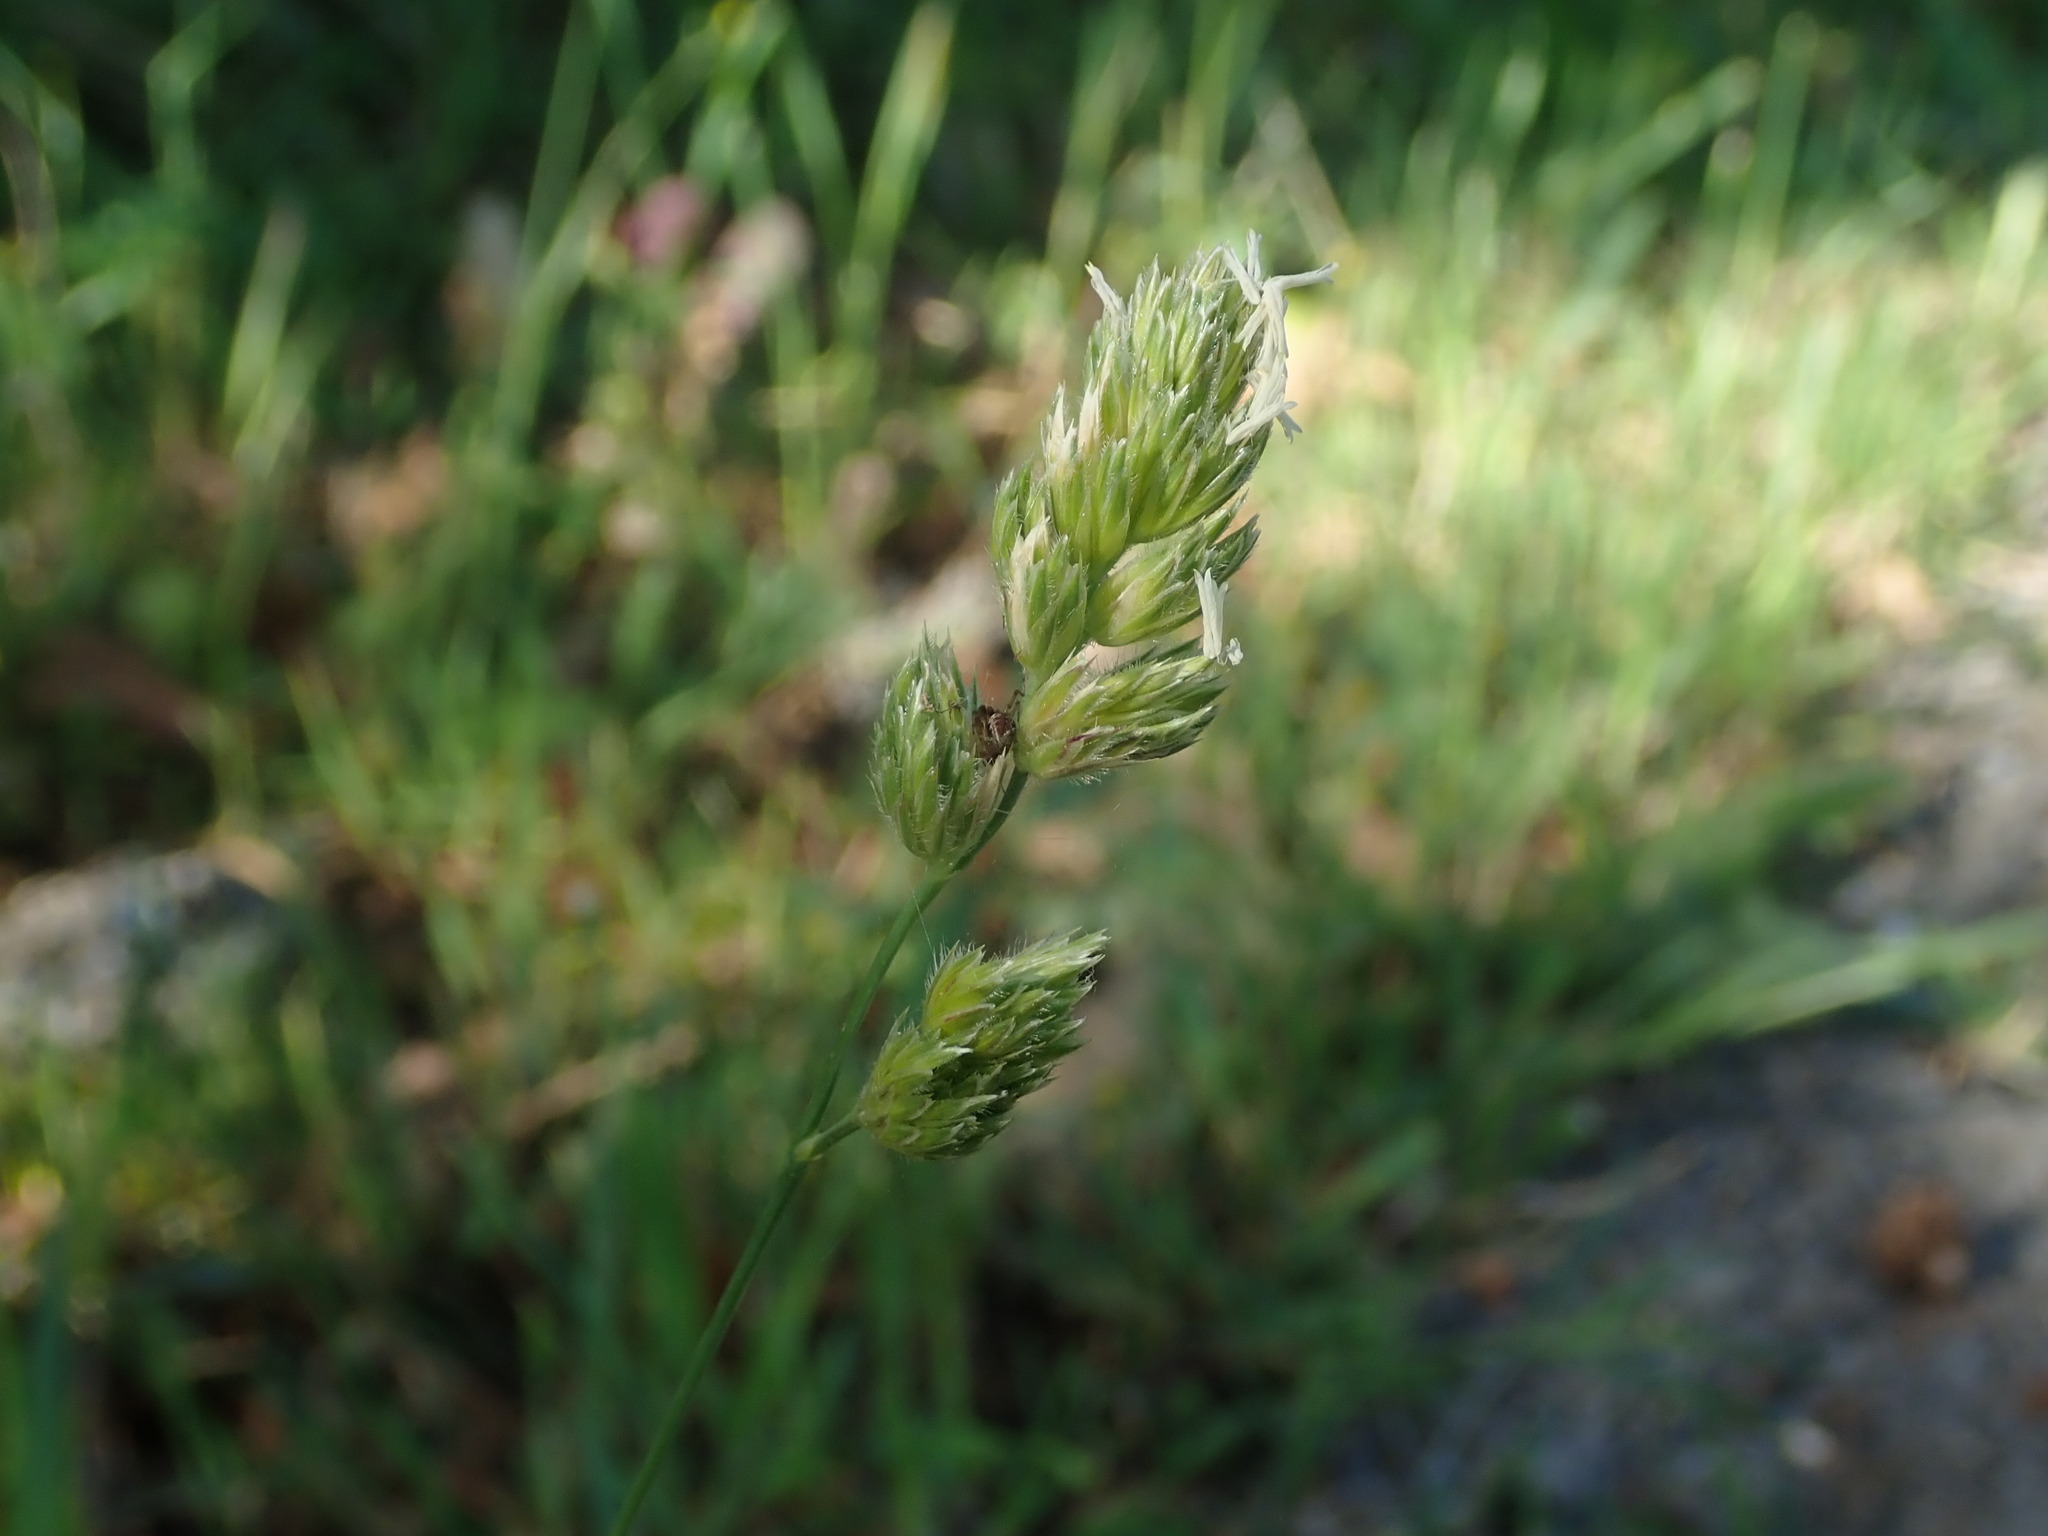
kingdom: Plantae
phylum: Tracheophyta
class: Liliopsida
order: Poales
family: Poaceae
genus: Dactylis
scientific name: Dactylis glomerata
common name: Orchardgrass
